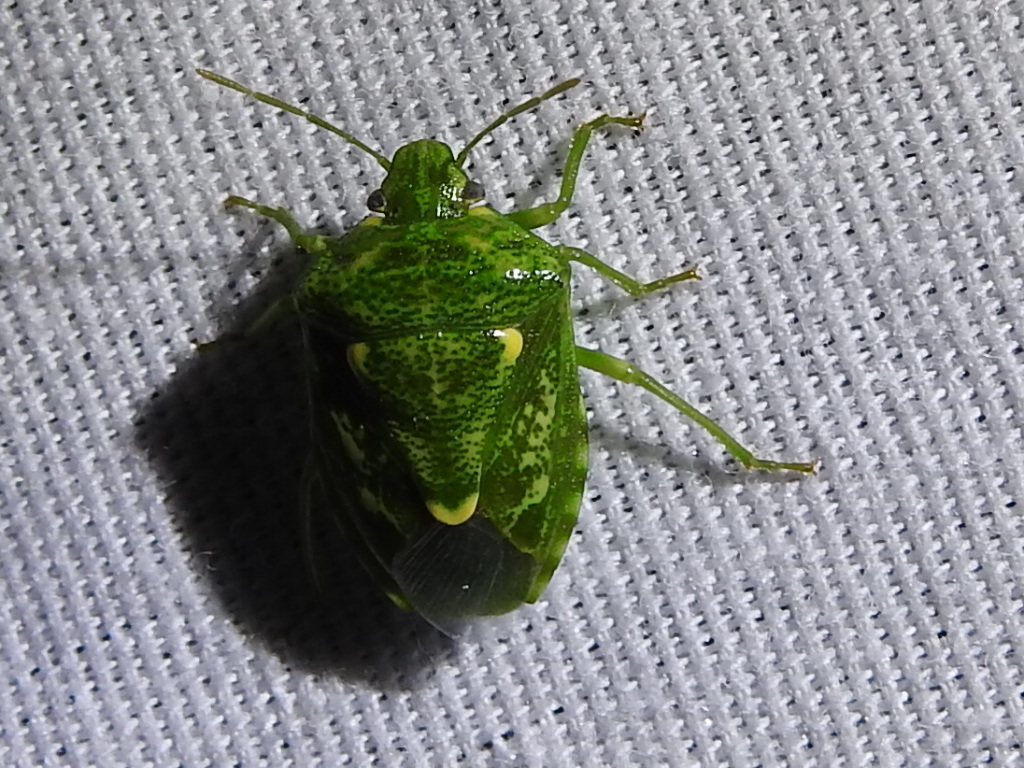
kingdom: Animalia
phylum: Arthropoda
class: Insecta
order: Hemiptera
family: Pentatomidae
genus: Banasa
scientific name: Banasa euchlora
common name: Cedar berry bug
